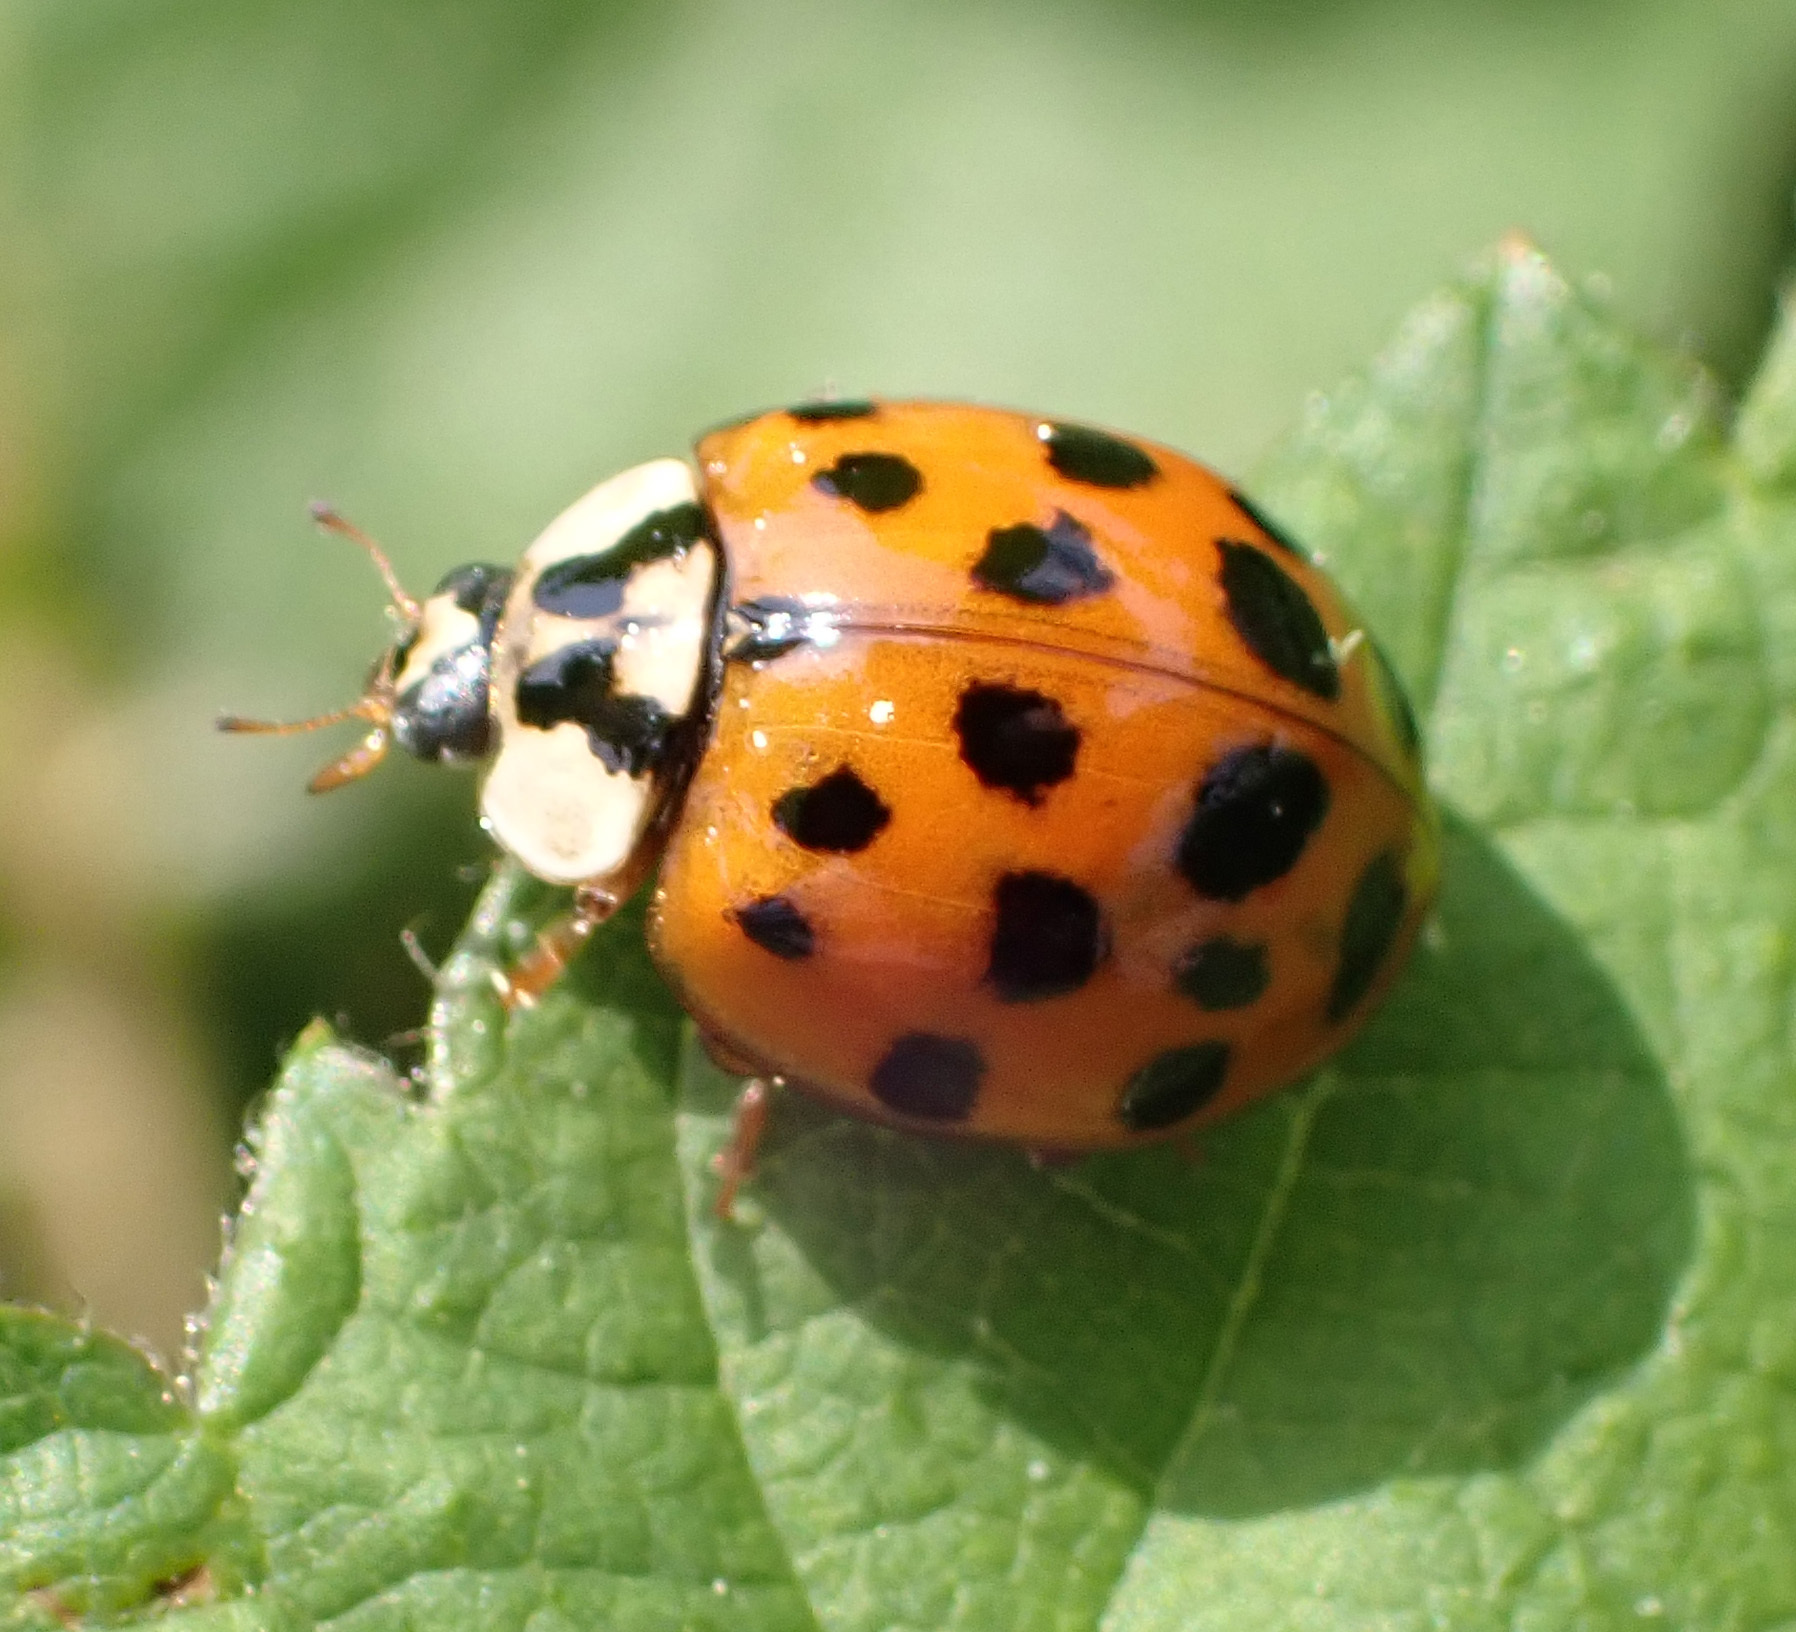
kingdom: Animalia
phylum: Arthropoda
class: Insecta
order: Coleoptera
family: Coccinellidae
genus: Harmonia
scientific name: Harmonia axyridis
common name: Harlequin ladybird
